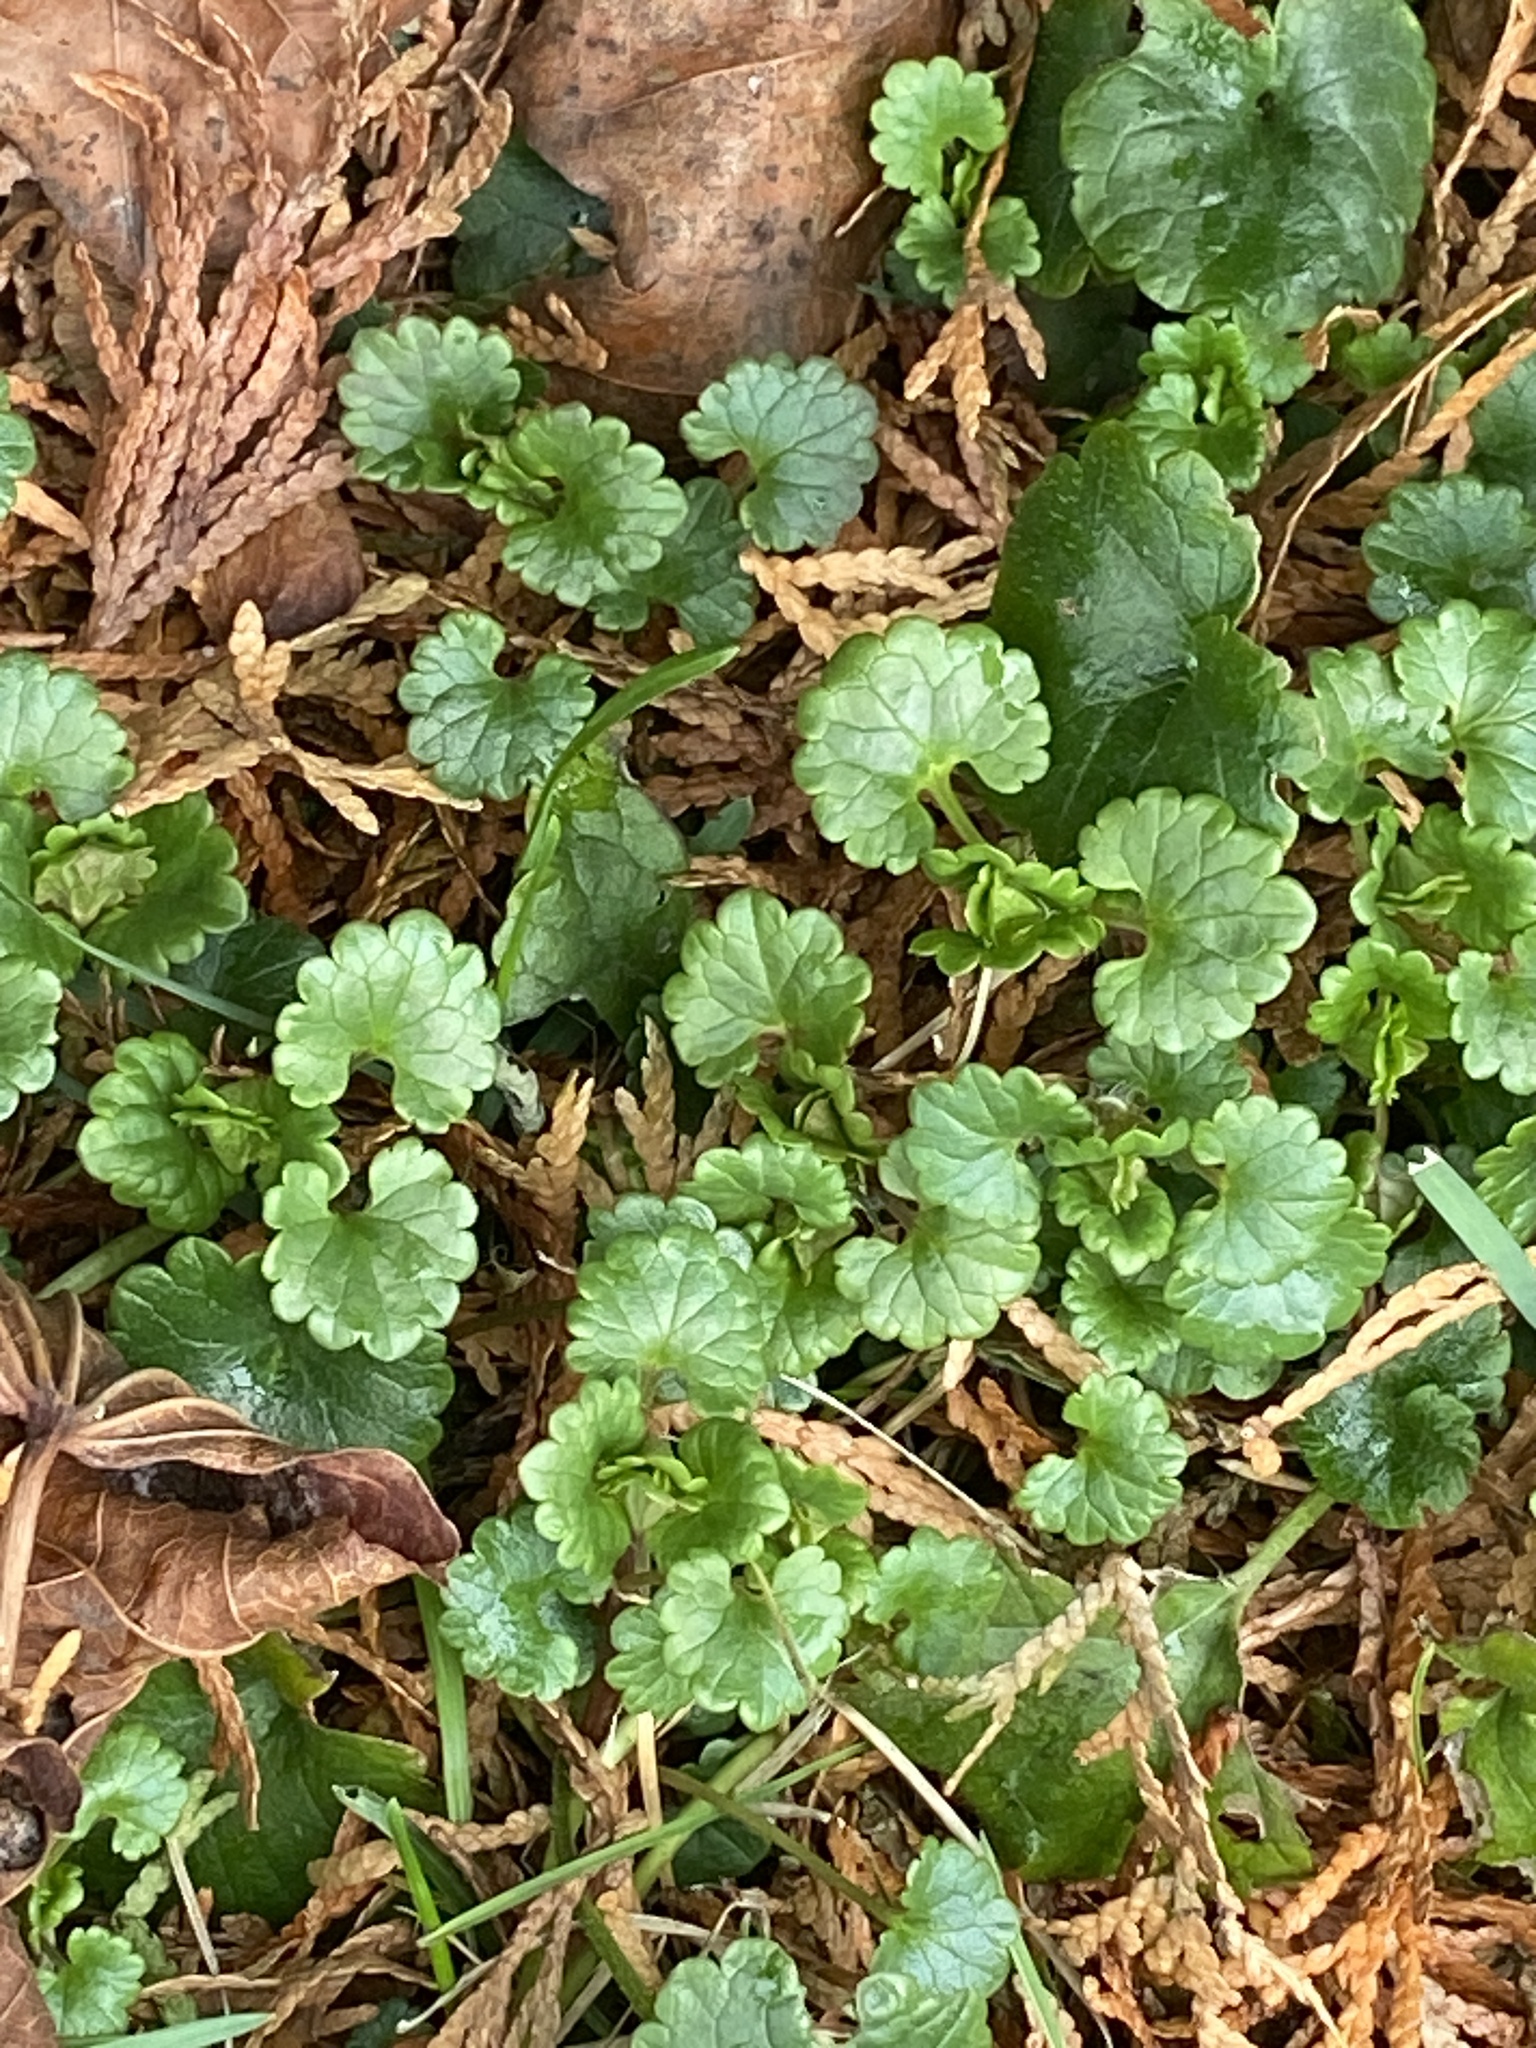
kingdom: Plantae
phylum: Tracheophyta
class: Magnoliopsida
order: Lamiales
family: Lamiaceae
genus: Glechoma
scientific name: Glechoma hederacea
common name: Ground ivy
